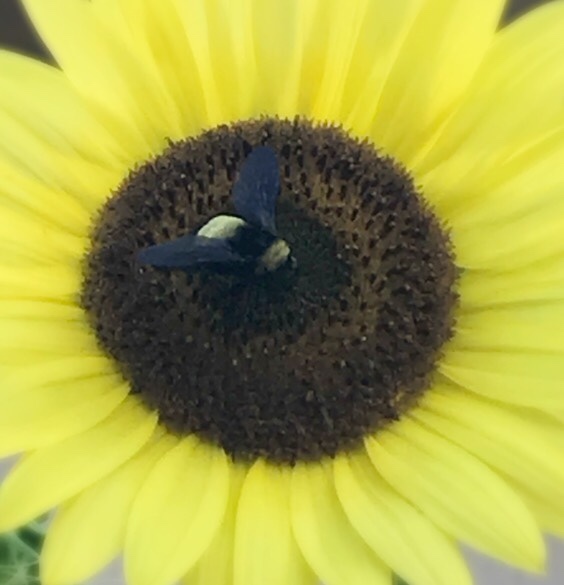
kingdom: Animalia
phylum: Arthropoda
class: Insecta
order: Hymenoptera
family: Apidae
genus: Bombus
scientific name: Bombus pensylvanicus
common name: Bumble bee
